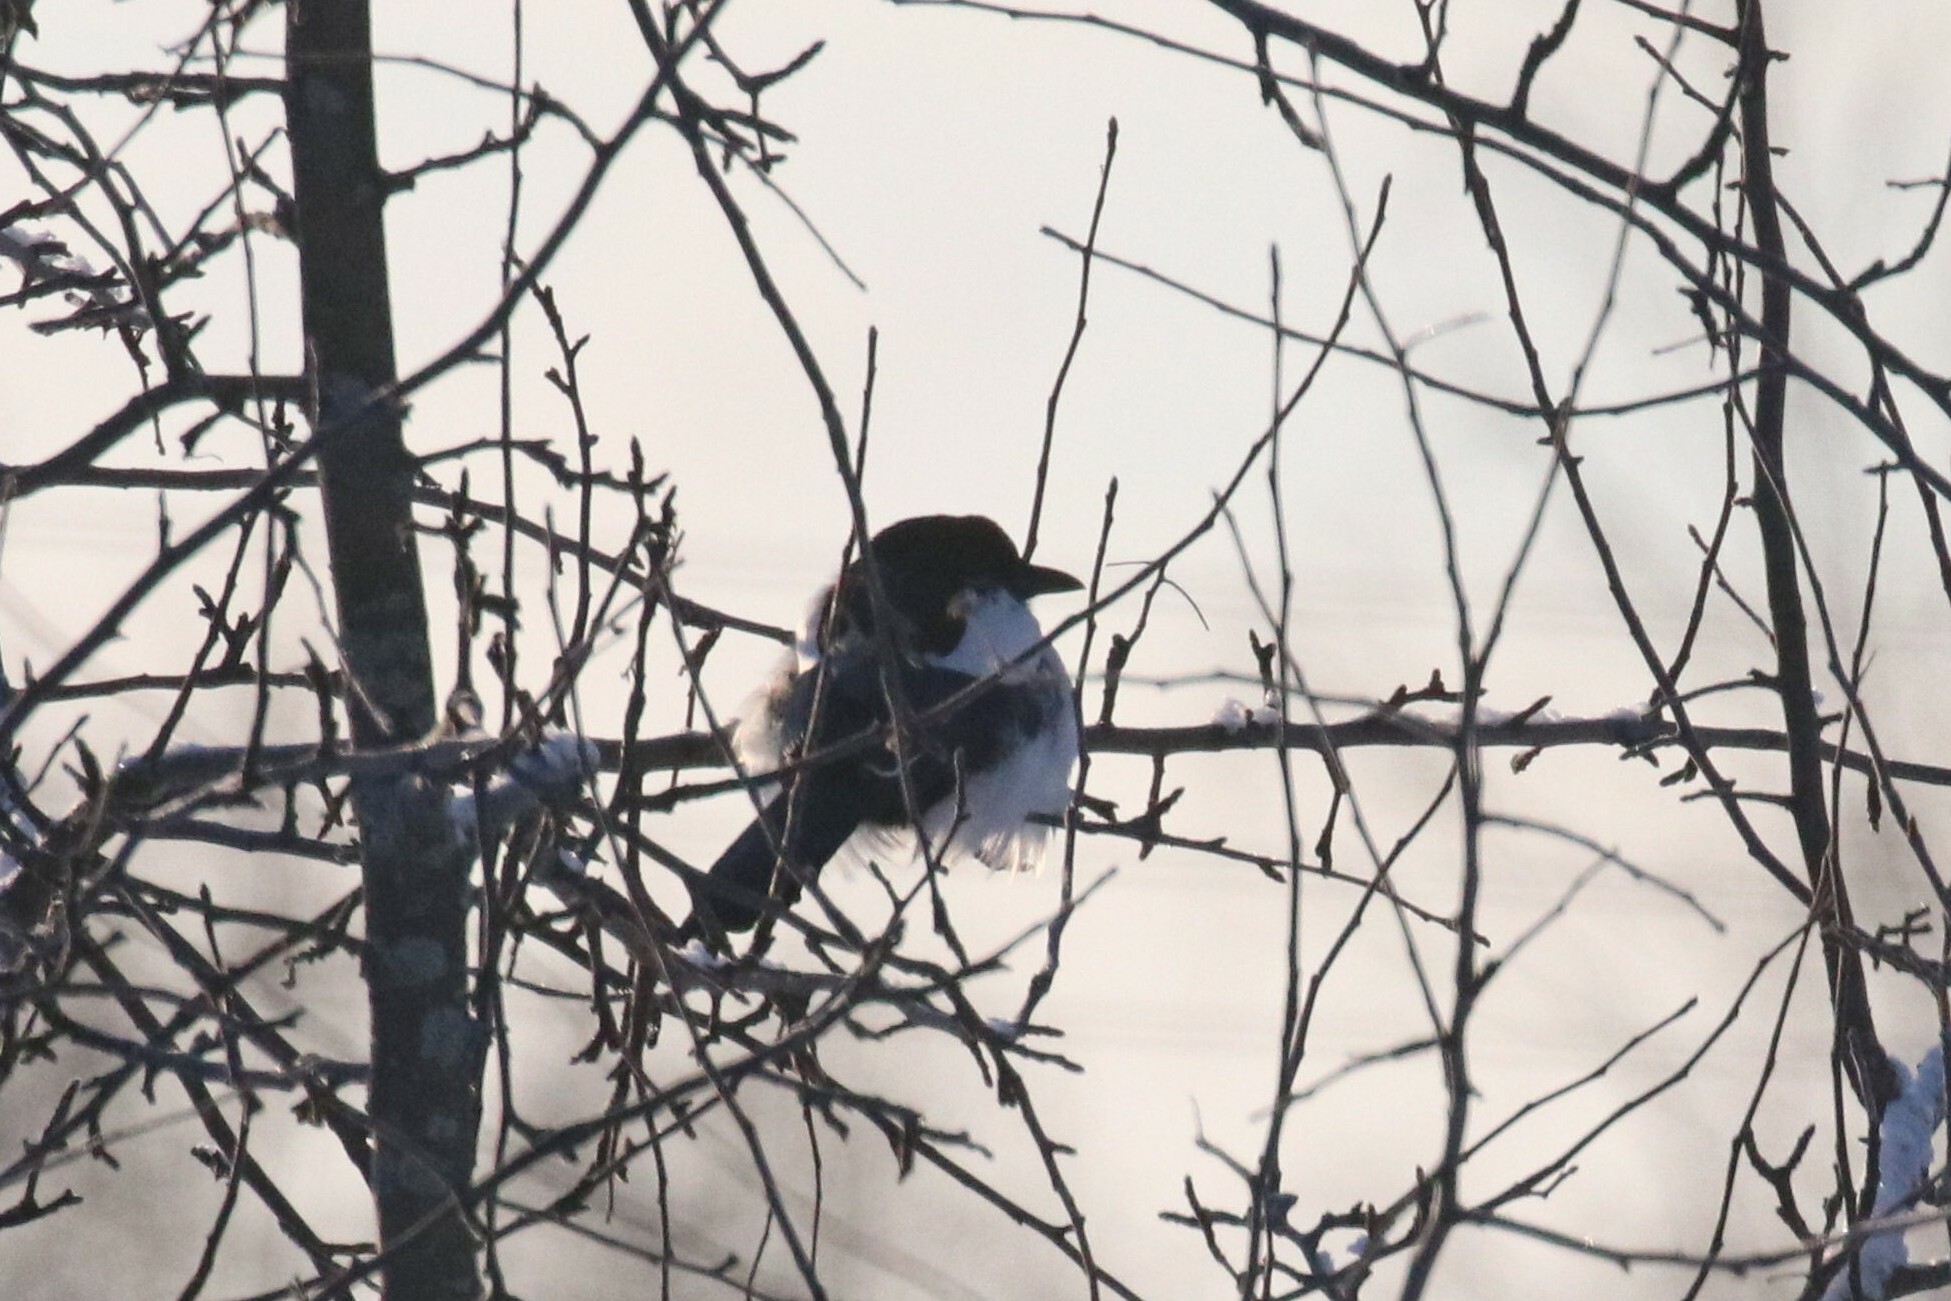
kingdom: Animalia
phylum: Chordata
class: Aves
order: Passeriformes
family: Corvidae
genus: Pica
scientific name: Pica pica
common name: Eurasian magpie
